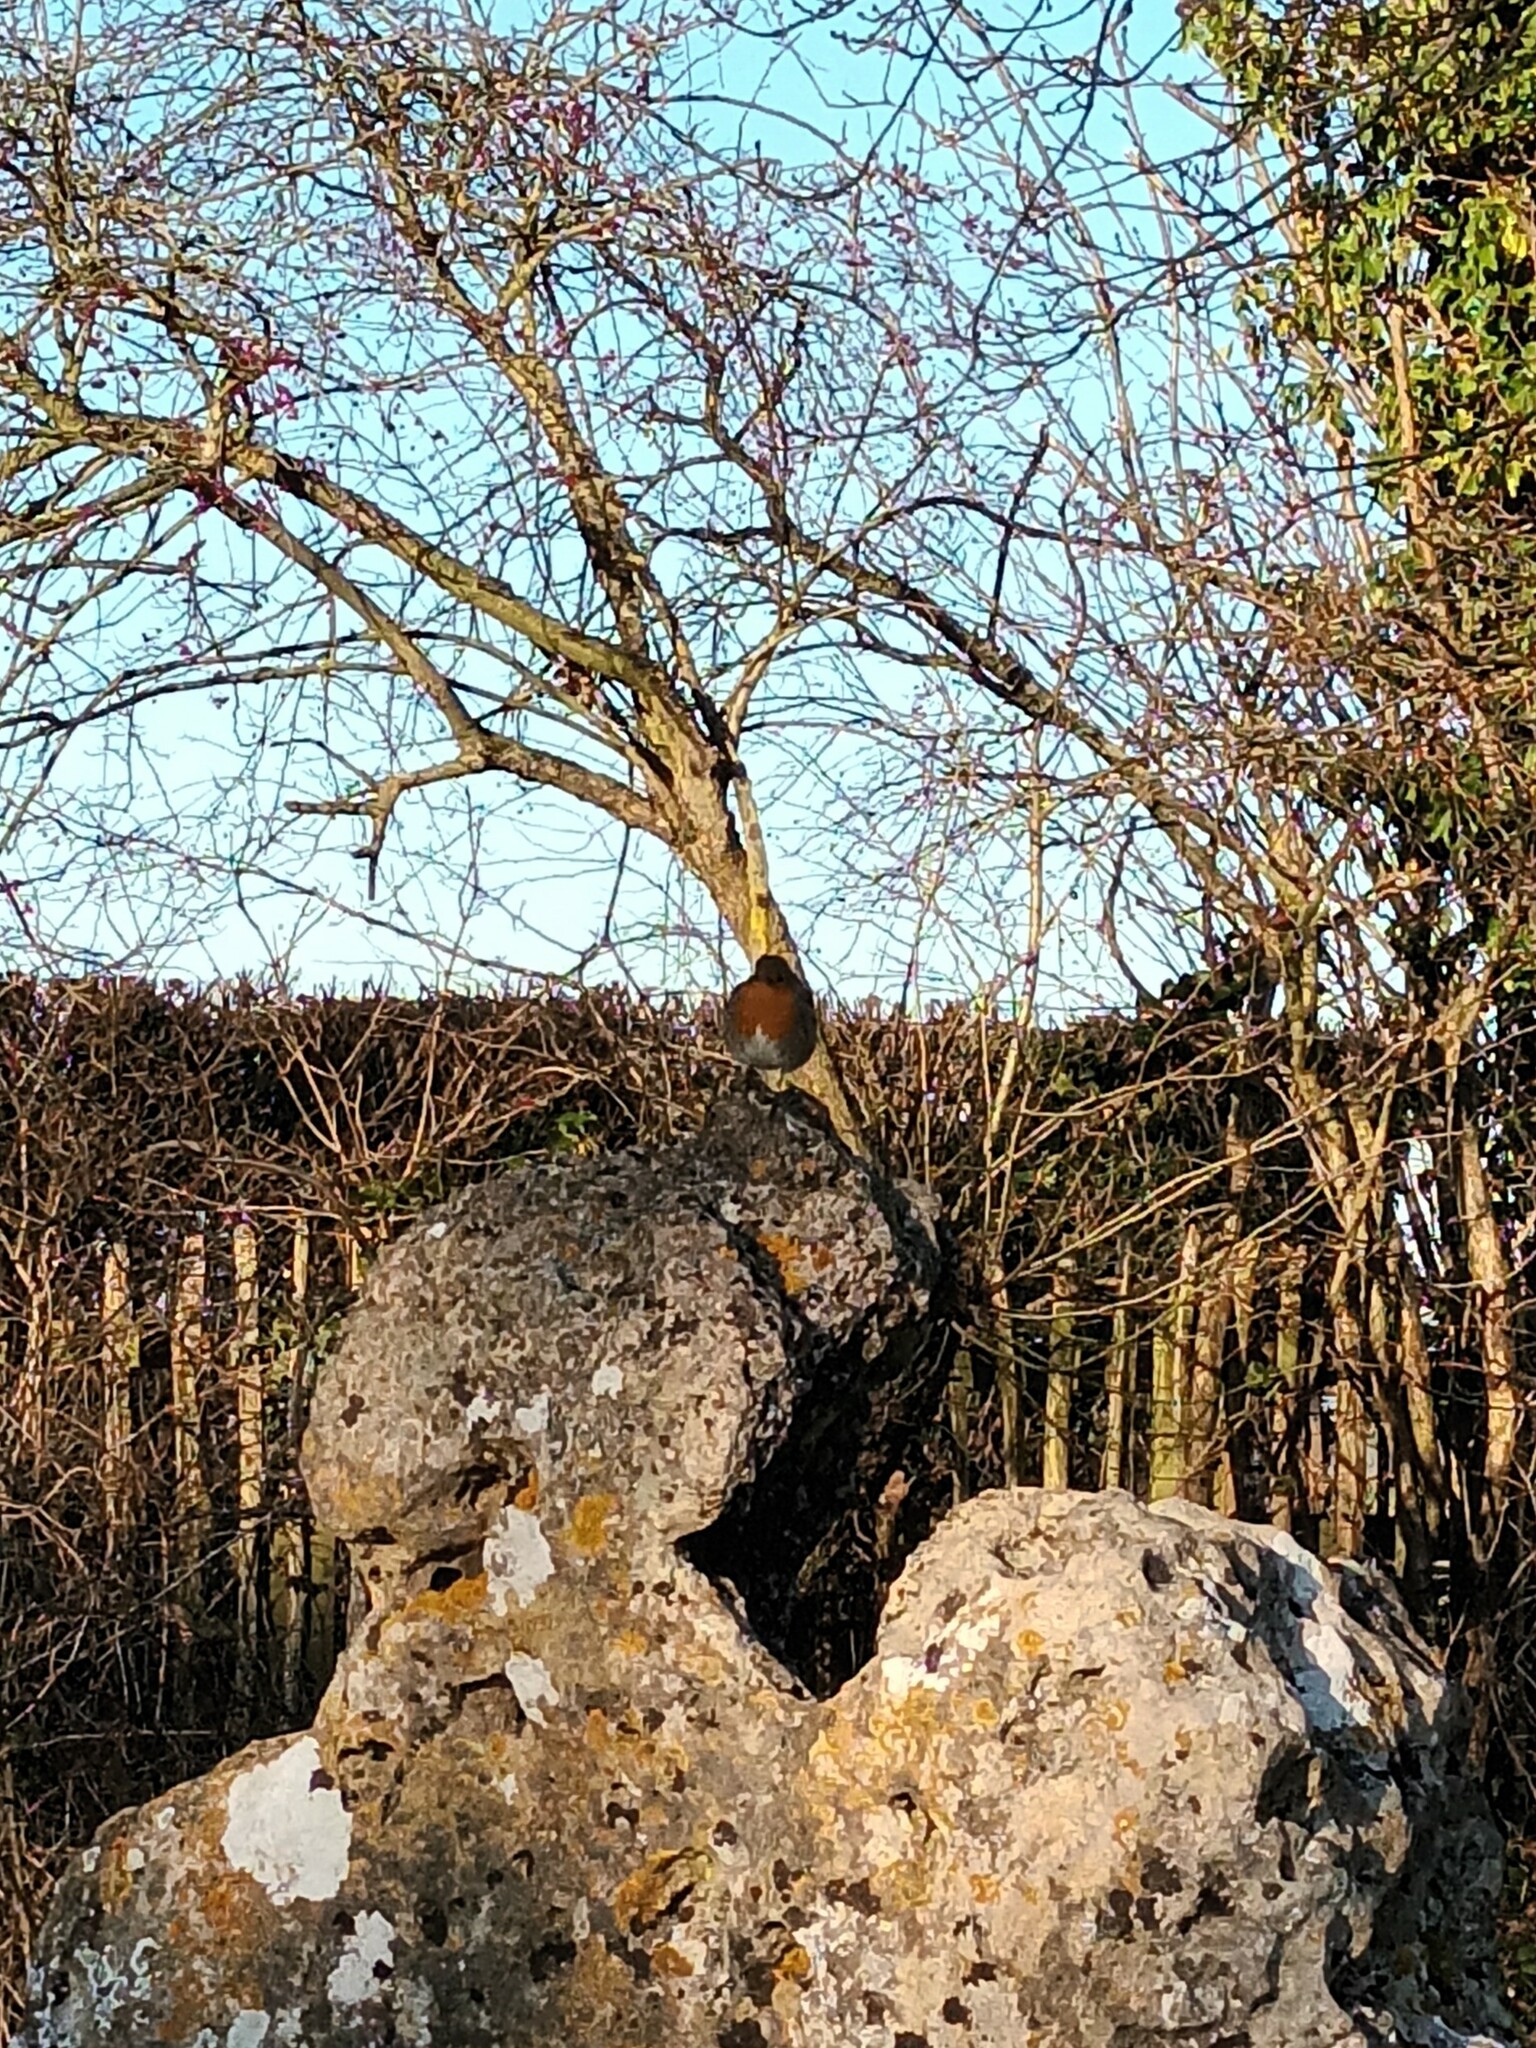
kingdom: Animalia
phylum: Chordata
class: Aves
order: Passeriformes
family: Muscicapidae
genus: Erithacus
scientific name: Erithacus rubecula
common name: European robin
